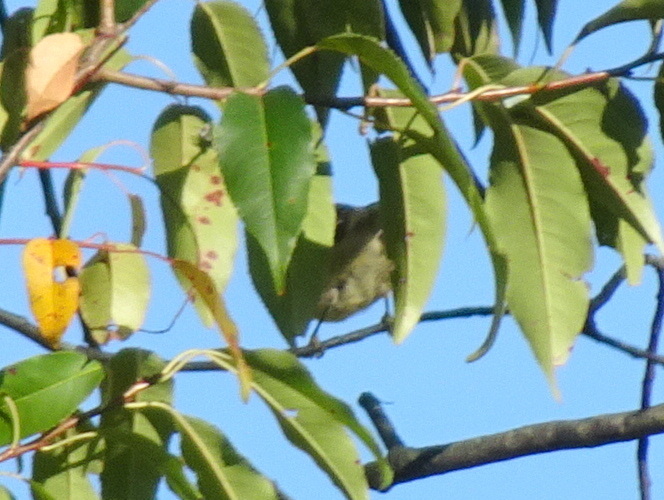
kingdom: Animalia
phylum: Chordata
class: Aves
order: Passeriformes
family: Parulidae
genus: Setophaga
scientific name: Setophaga pinus
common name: Pine warbler
